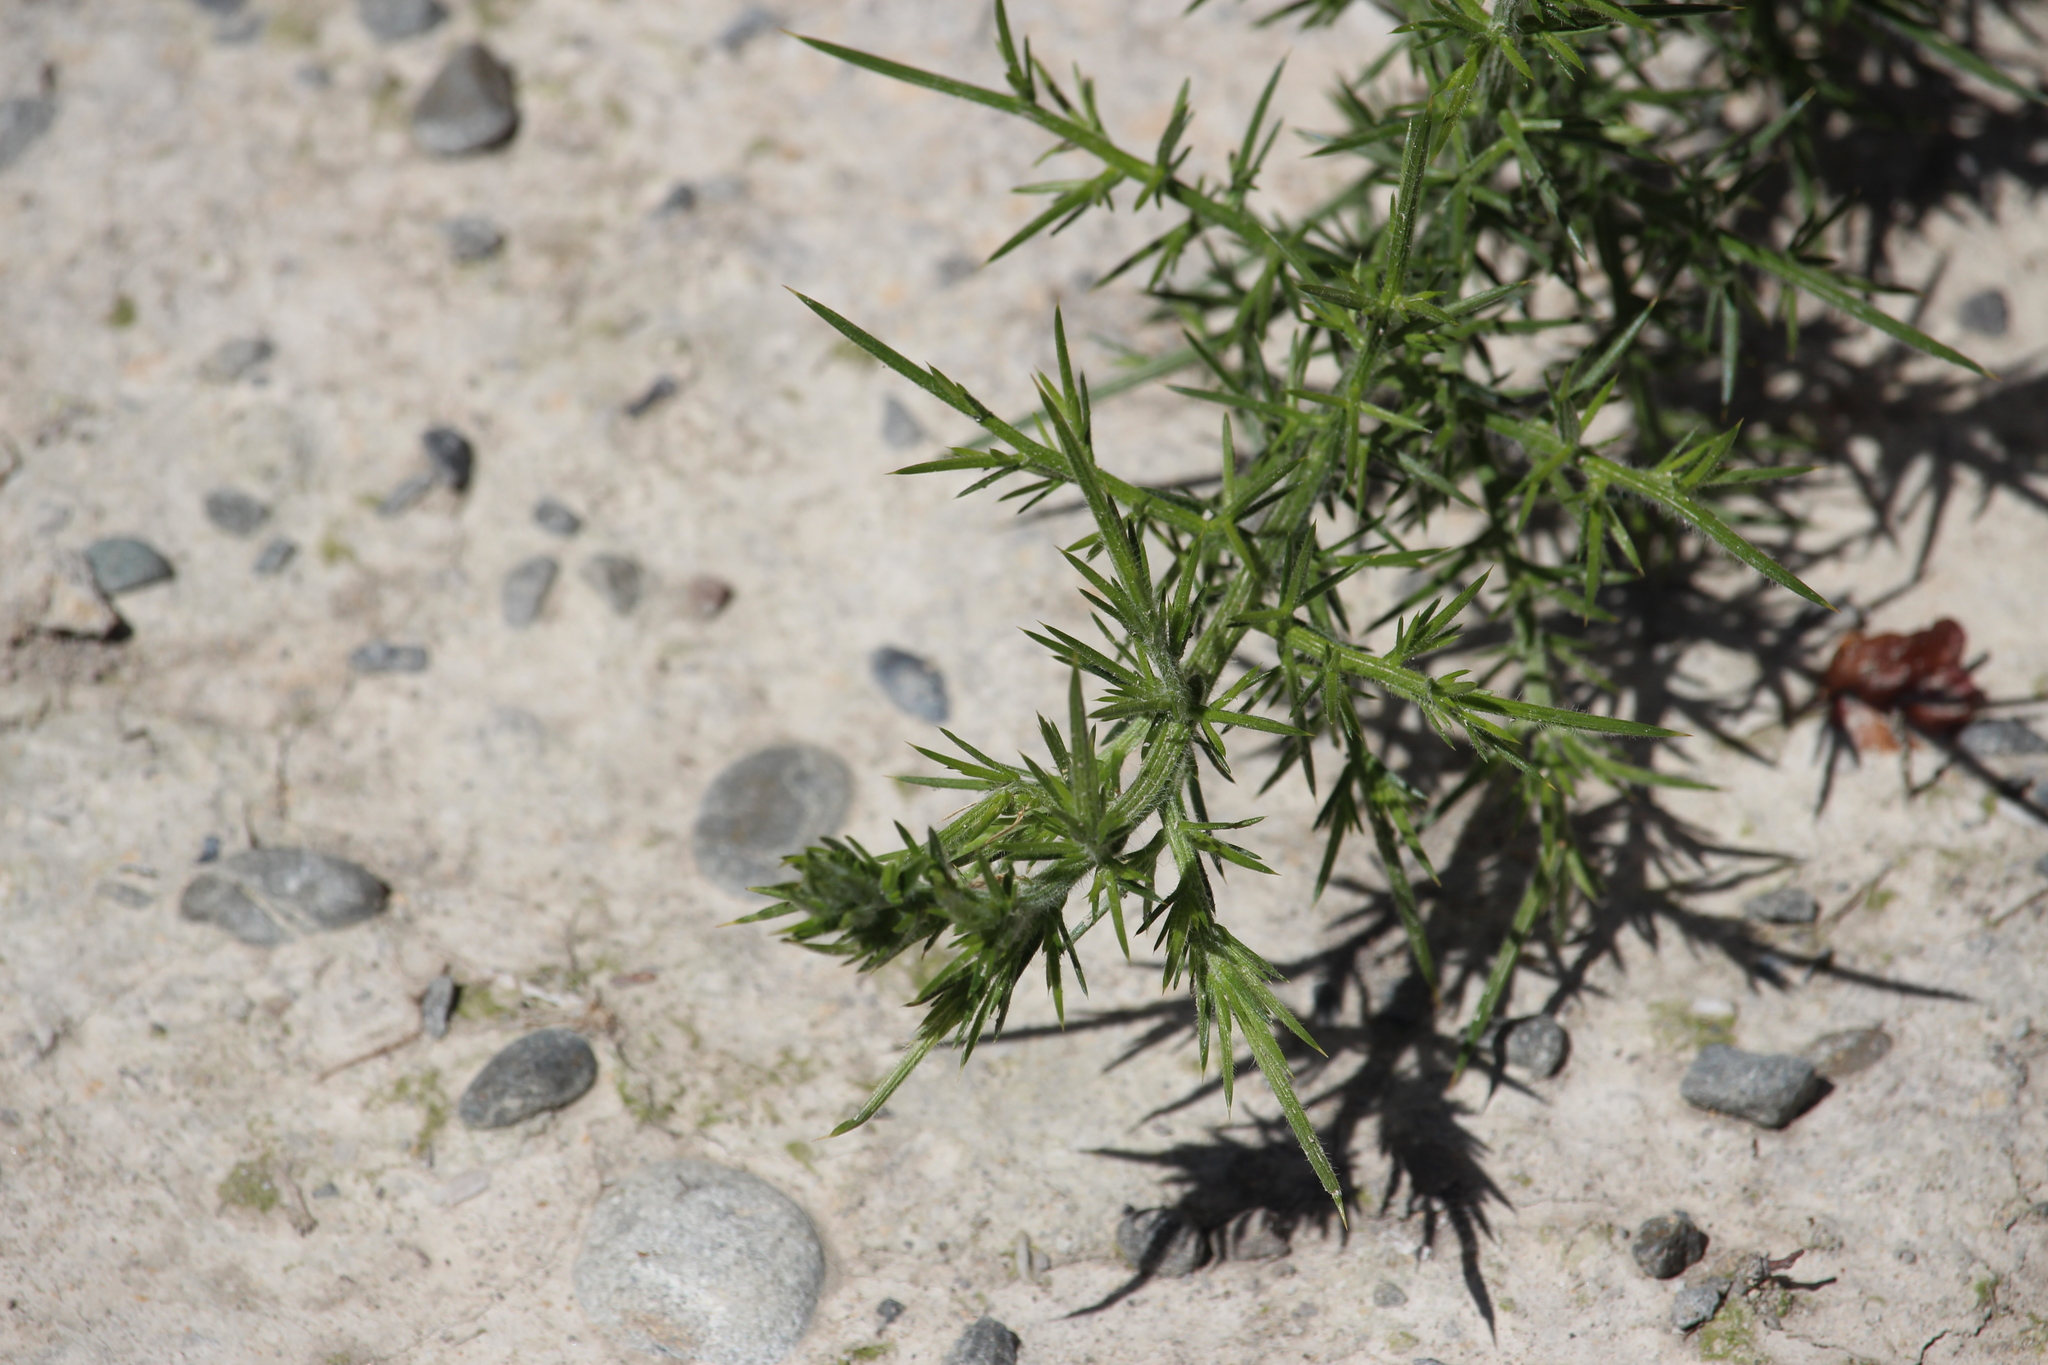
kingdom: Plantae
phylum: Tracheophyta
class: Magnoliopsida
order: Fabales
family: Fabaceae
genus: Ulex
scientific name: Ulex europaeus
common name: Common gorse
